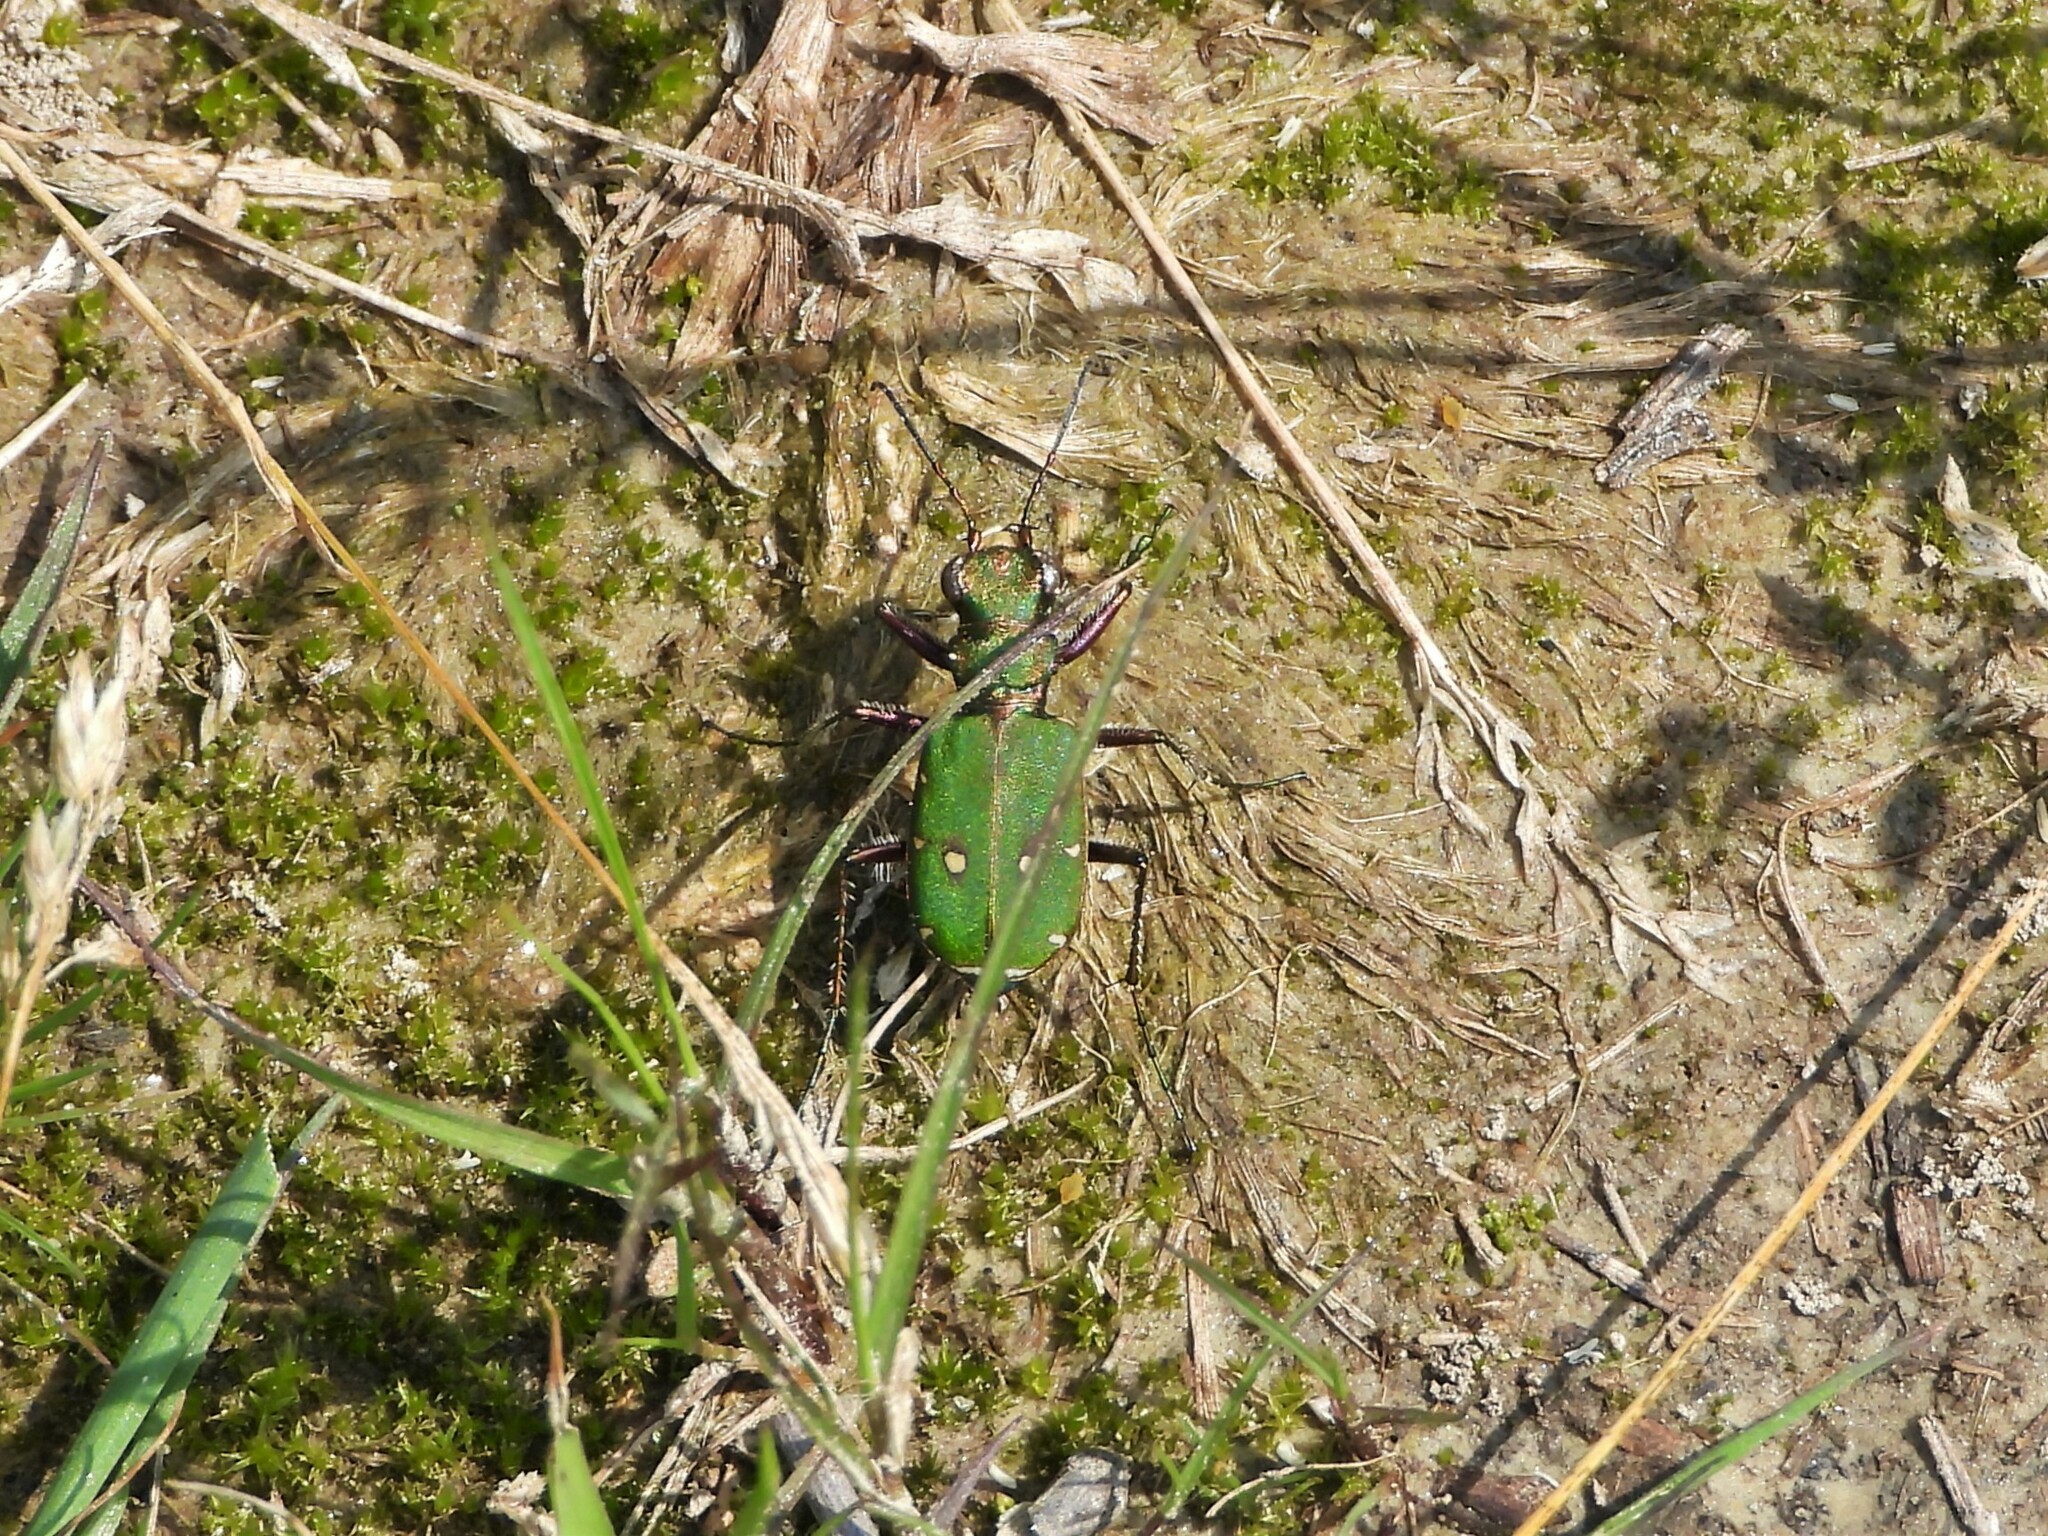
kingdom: Animalia
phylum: Arthropoda
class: Insecta
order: Coleoptera
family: Carabidae
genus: Cicindela
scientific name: Cicindela campestris
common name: Common tiger beetle
